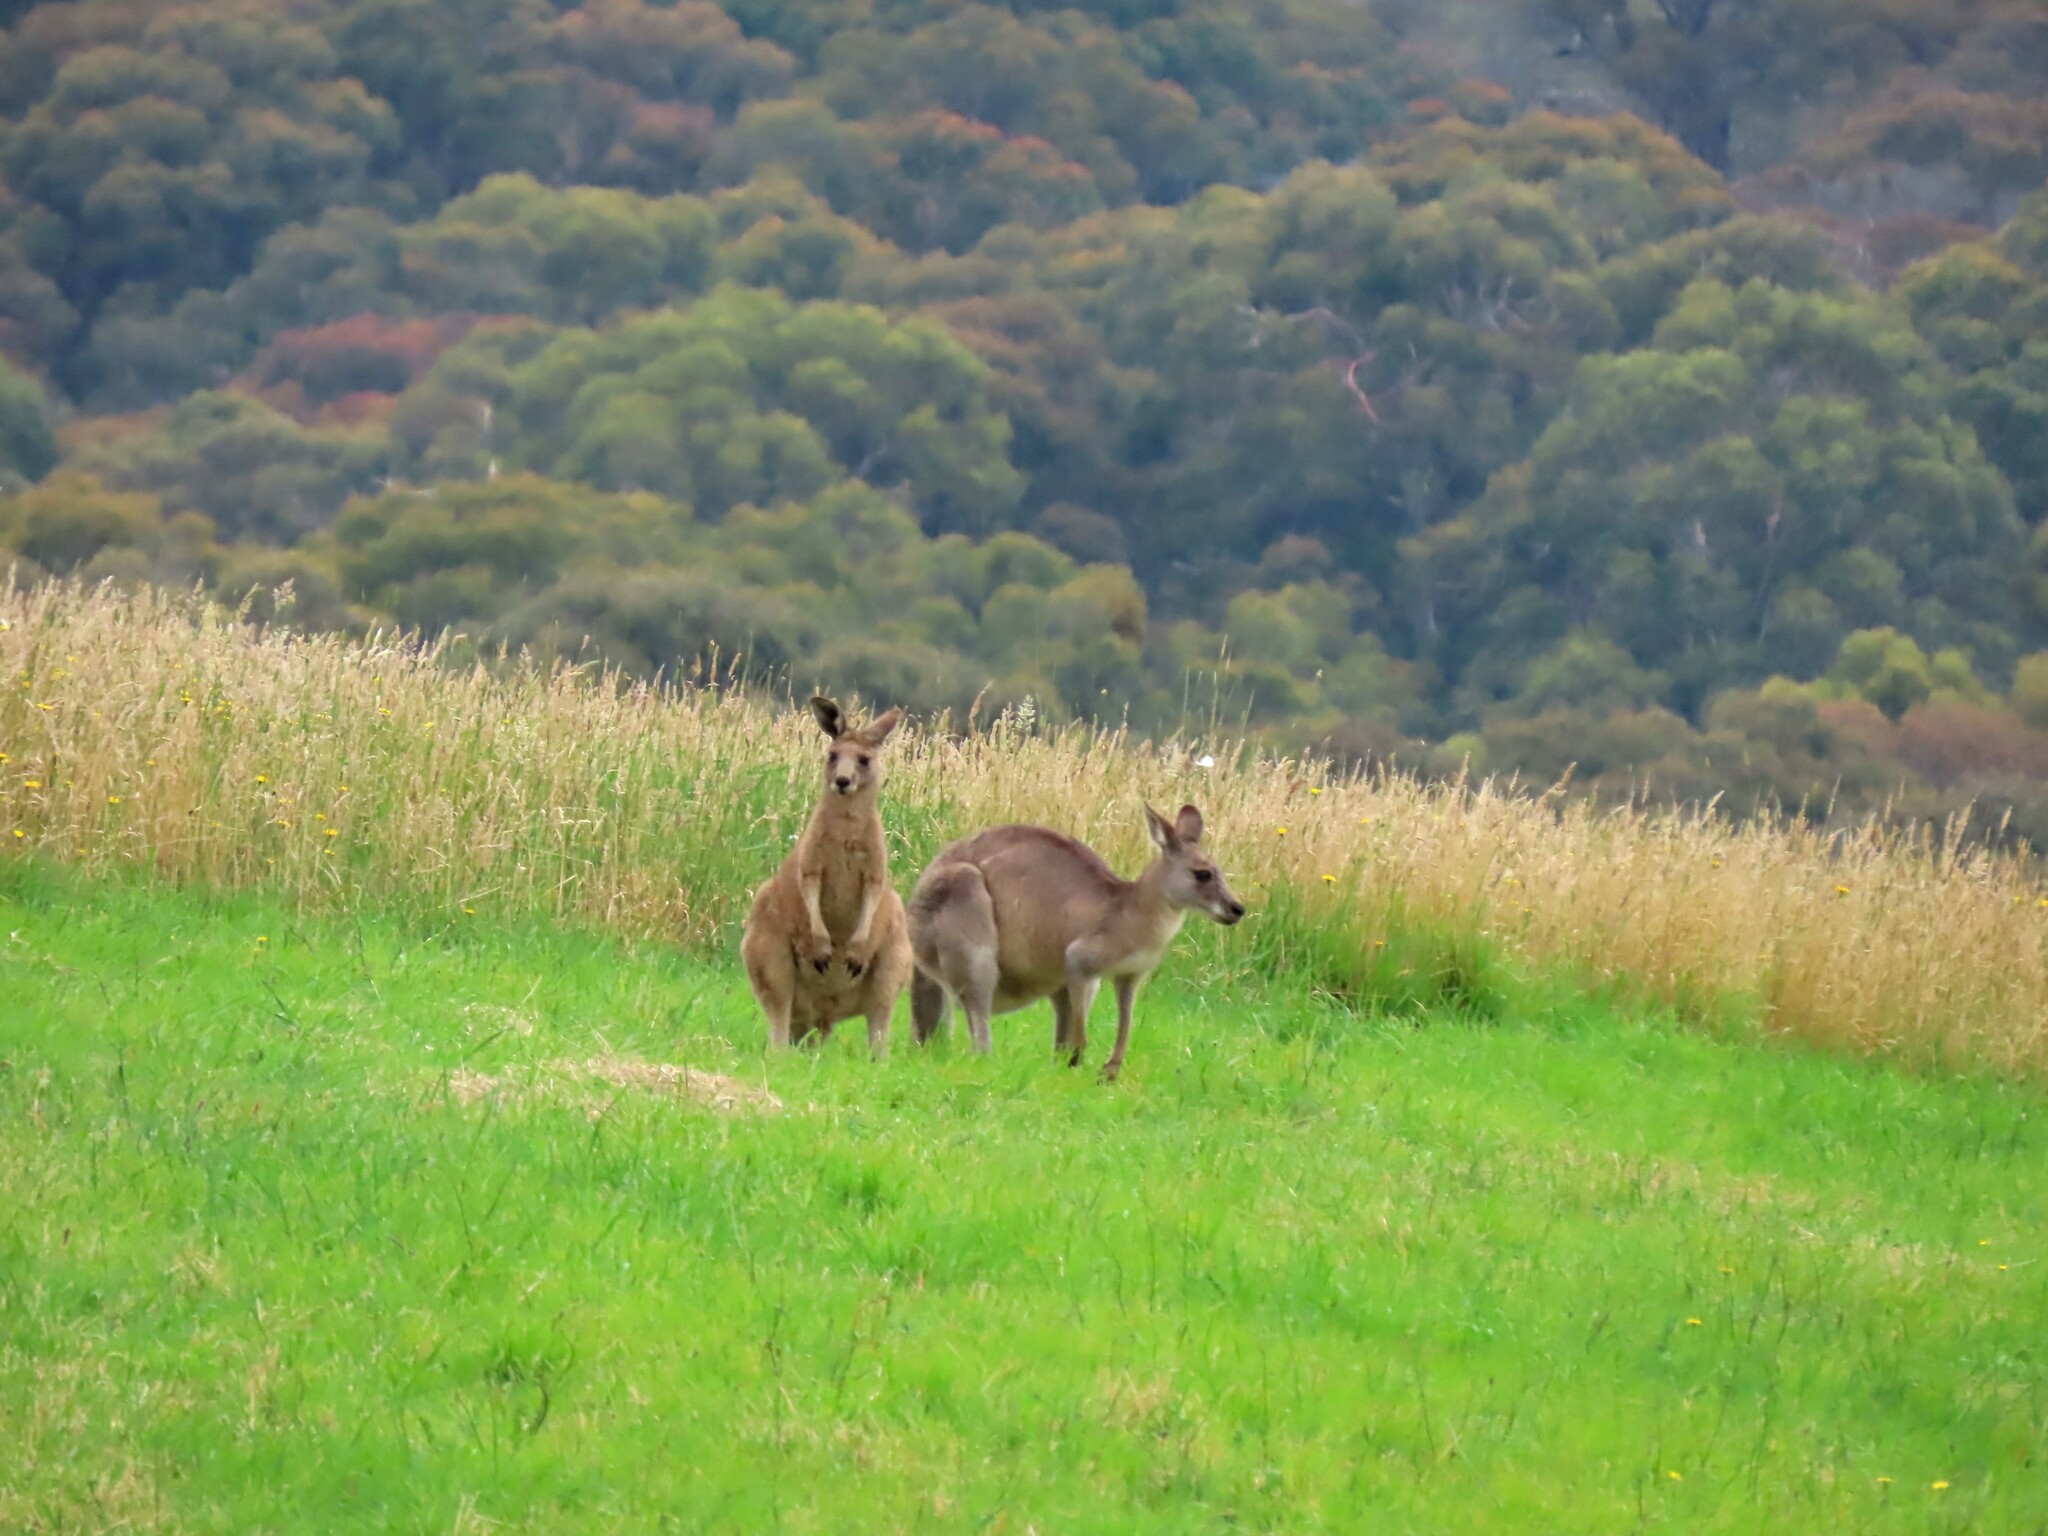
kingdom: Animalia
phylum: Chordata
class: Mammalia
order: Diprotodontia
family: Macropodidae
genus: Macropus
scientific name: Macropus giganteus
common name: Eastern grey kangaroo
